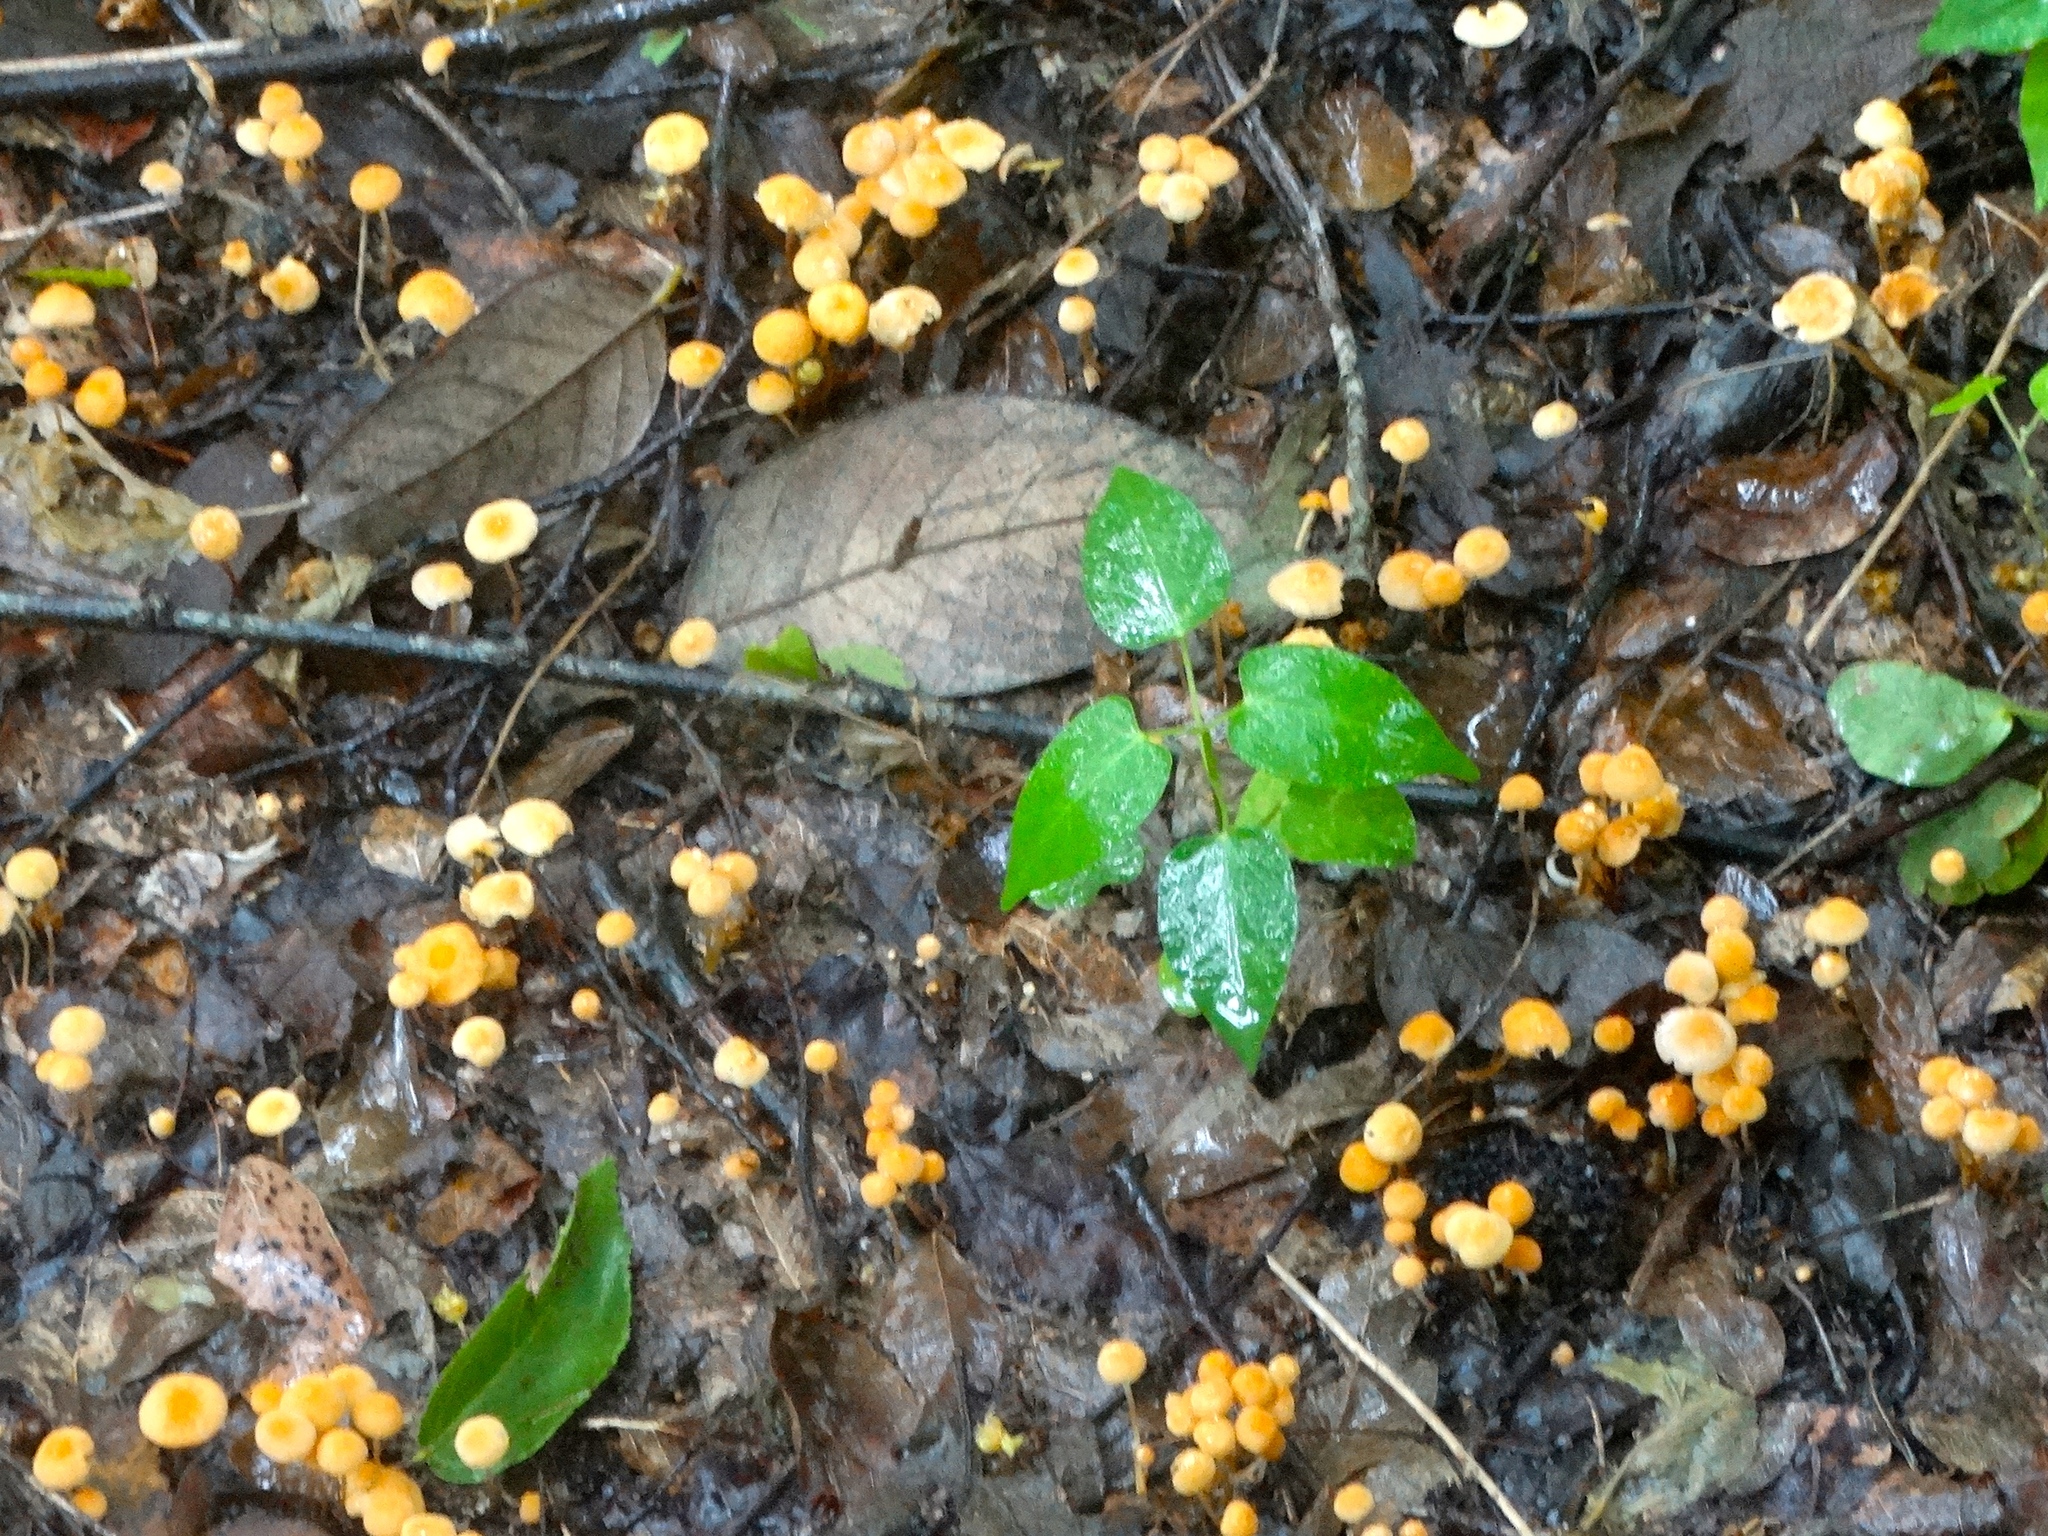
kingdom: Fungi
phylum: Basidiomycota
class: Agaricomycetes
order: Agaricales
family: Marasmiaceae
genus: Marasmius
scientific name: Marasmius
